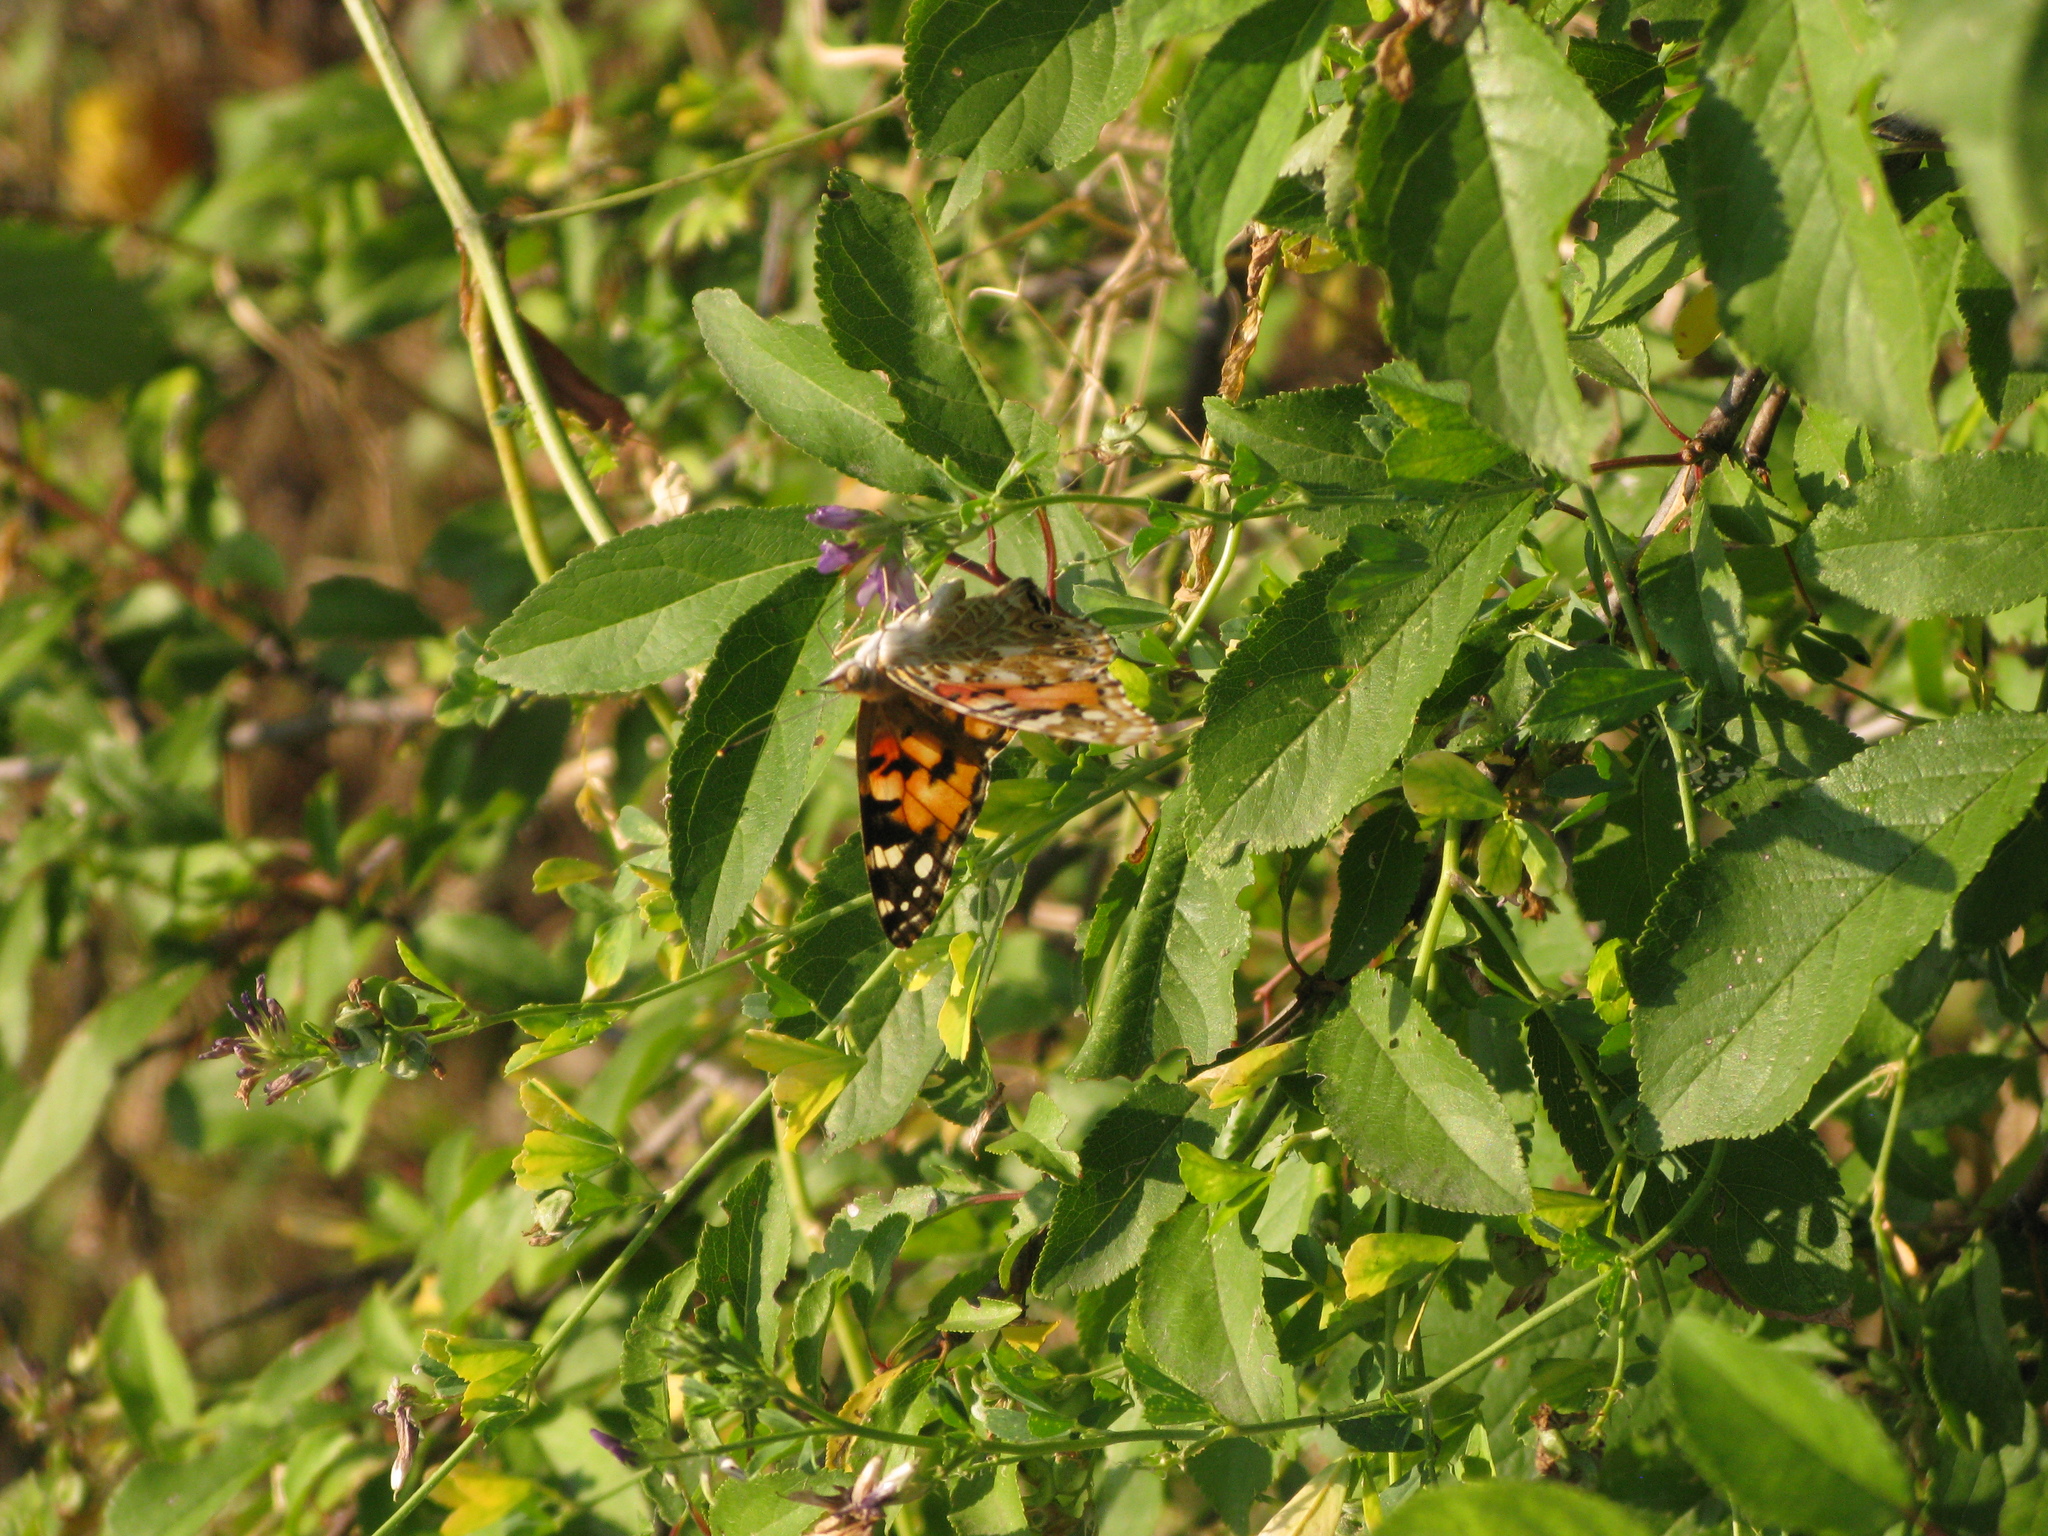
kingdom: Animalia
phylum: Arthropoda
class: Insecta
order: Lepidoptera
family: Nymphalidae
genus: Vanessa
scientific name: Vanessa cardui
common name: Painted lady
